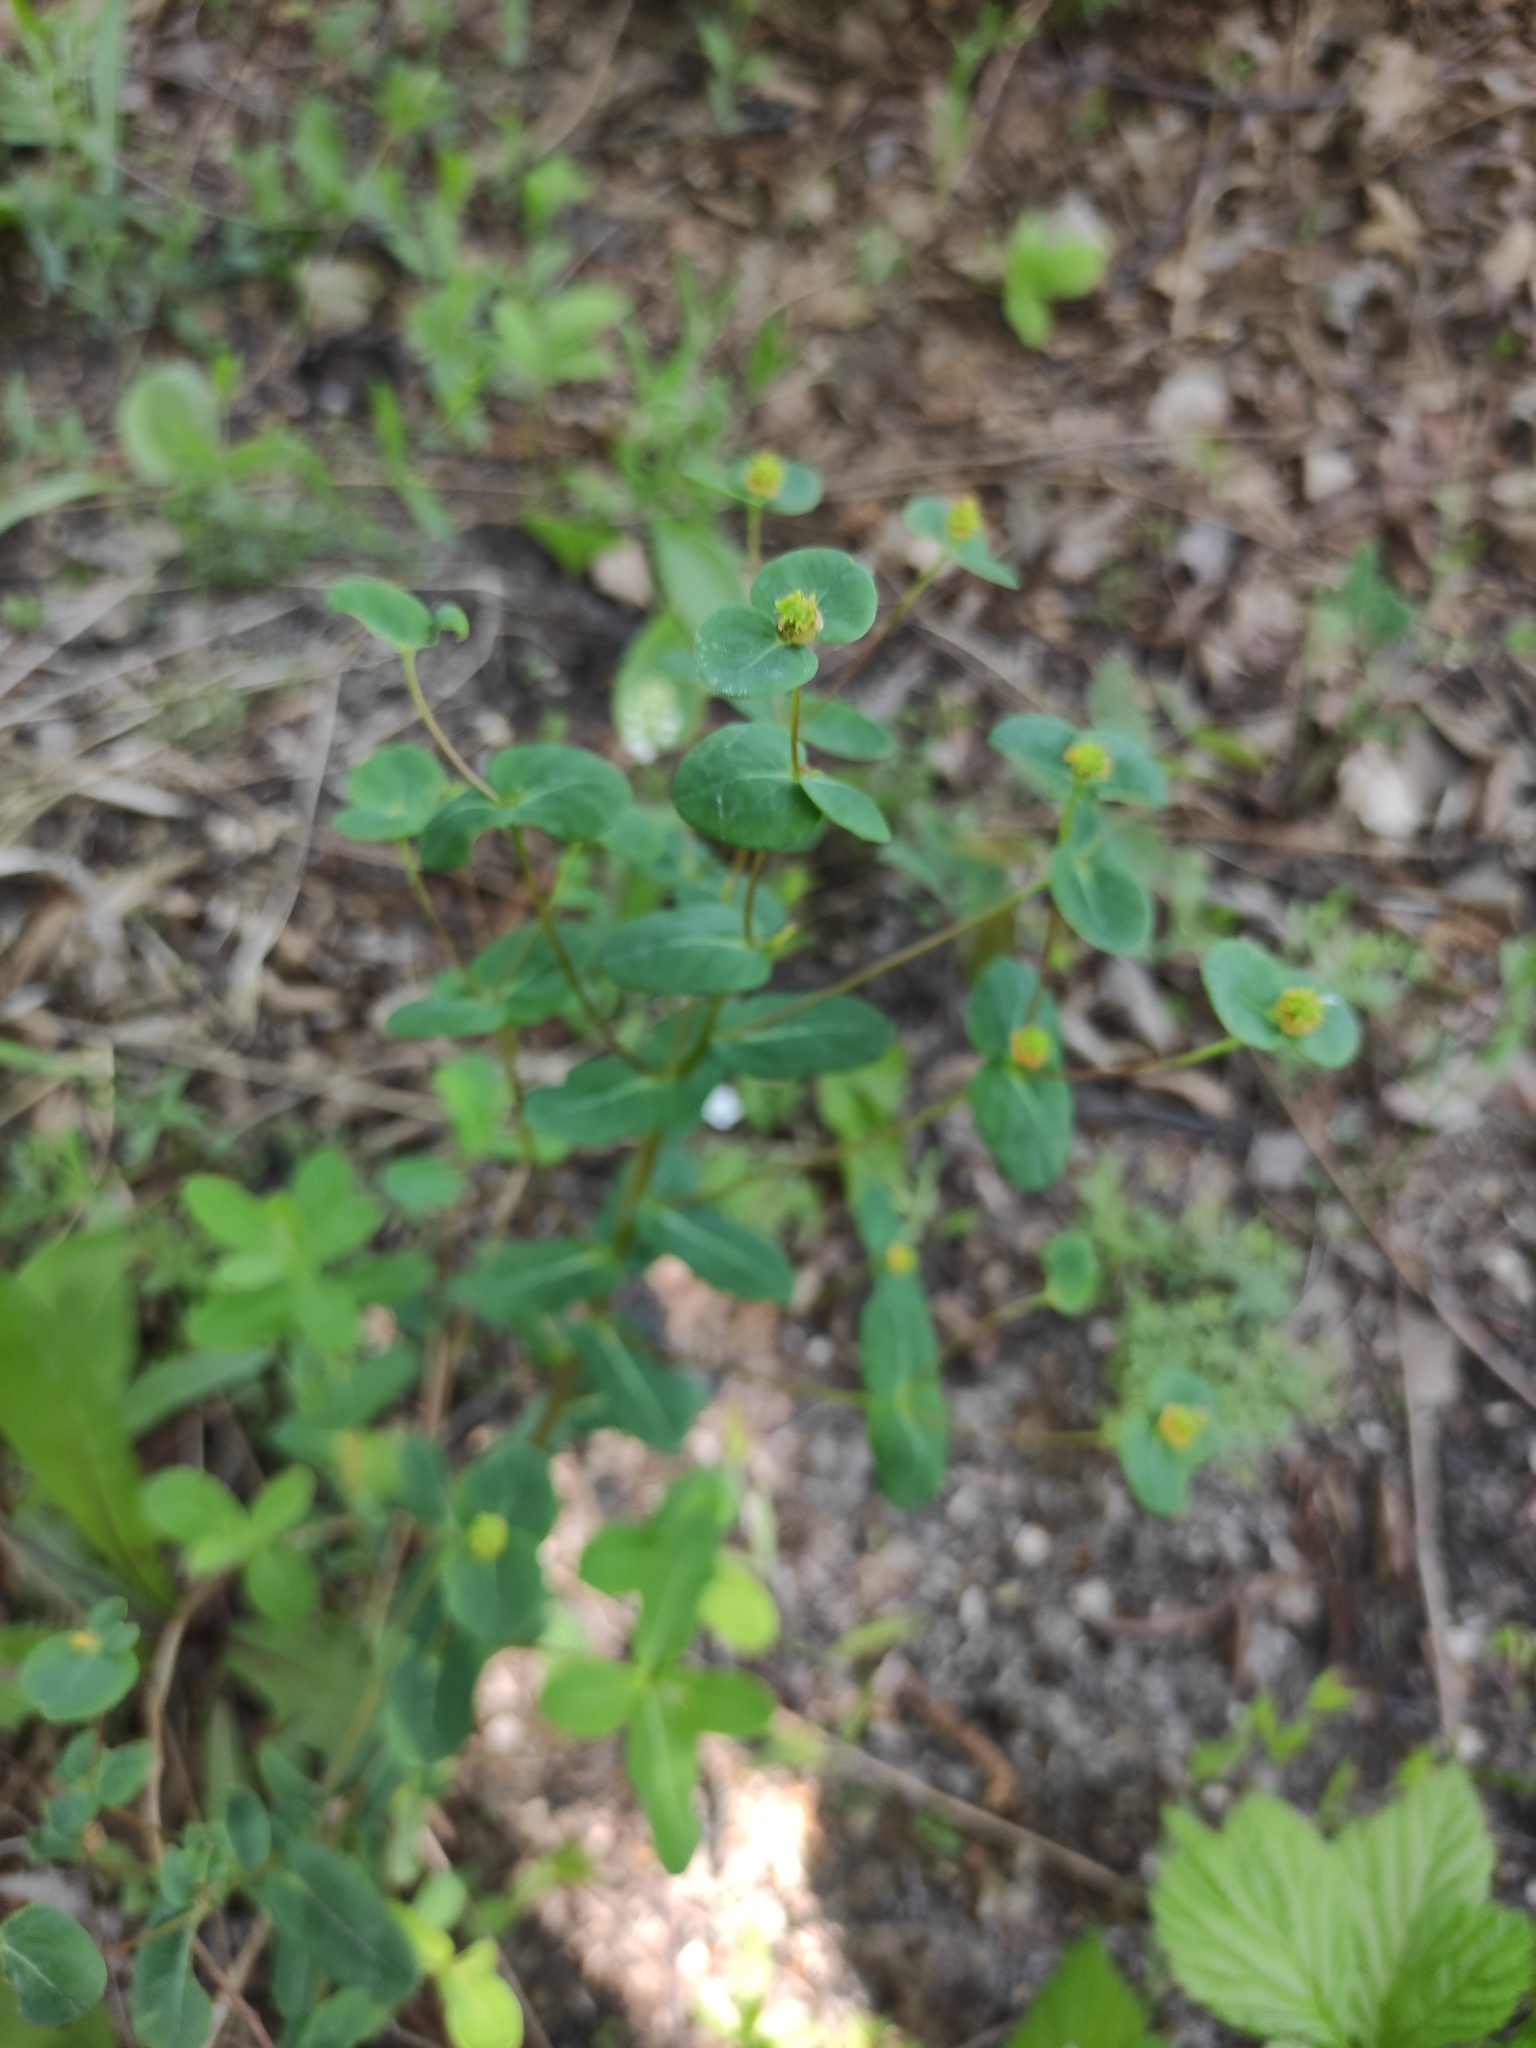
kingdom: Plantae
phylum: Tracheophyta
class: Magnoliopsida
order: Malpighiales
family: Euphorbiaceae
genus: Euphorbia
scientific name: Euphorbia jenisseiensis
